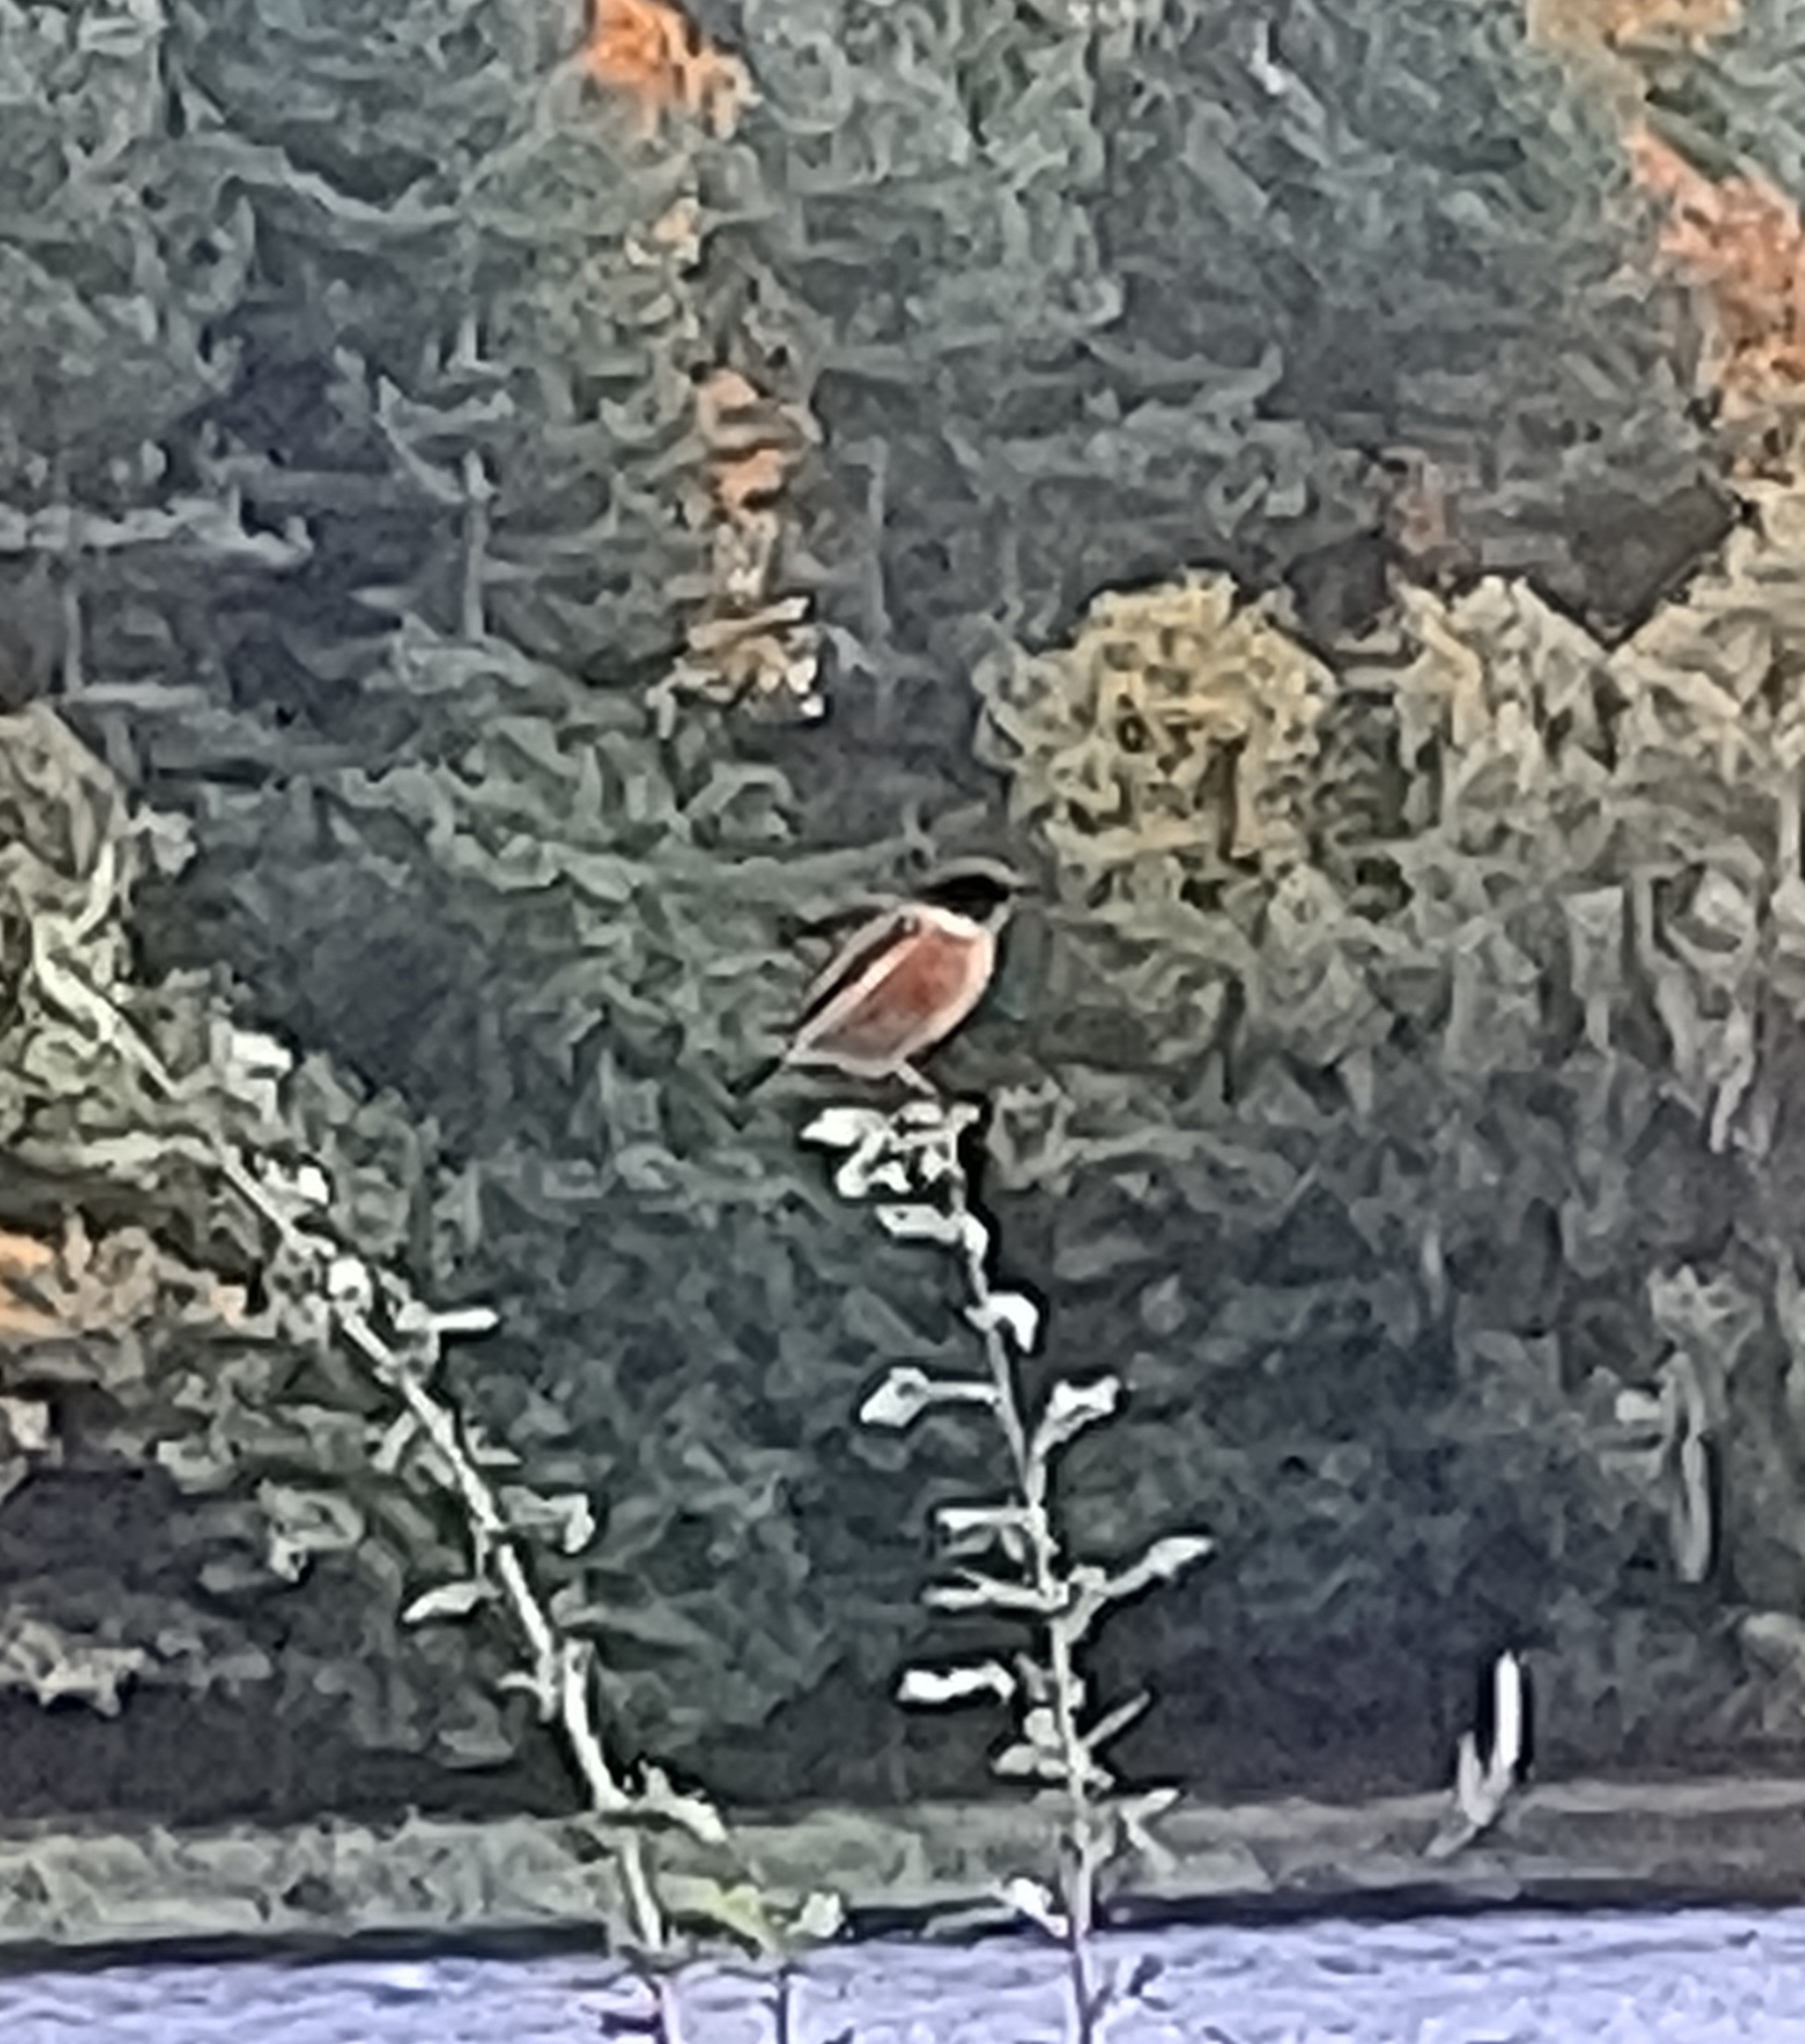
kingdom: Animalia
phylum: Chordata
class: Aves
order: Passeriformes
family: Muscicapidae
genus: Saxicola
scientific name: Saxicola rubicola
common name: European stonechat
